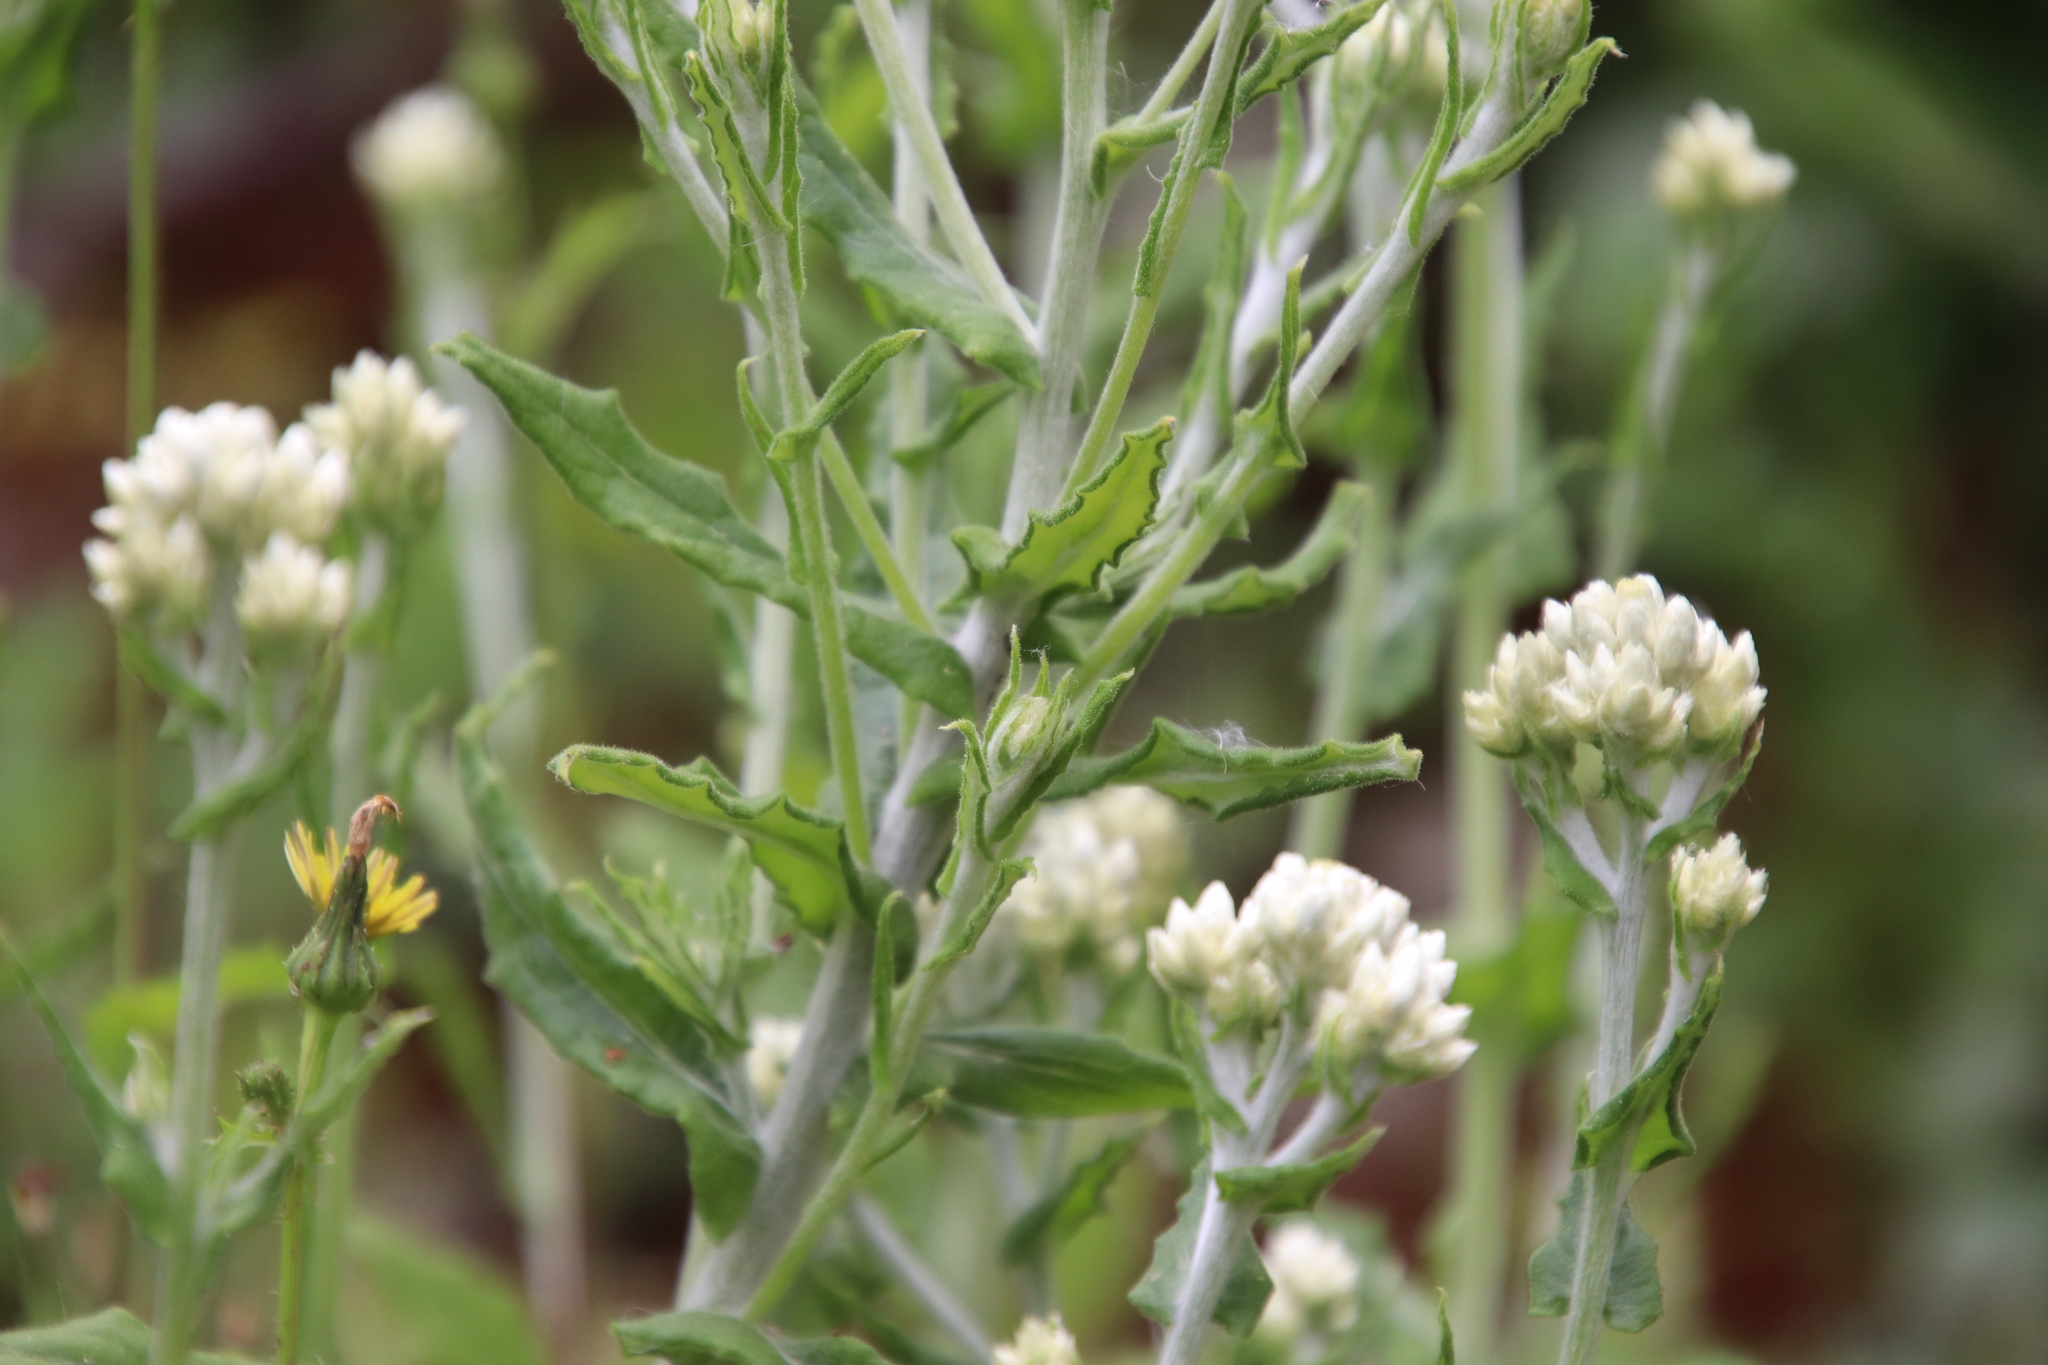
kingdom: Plantae
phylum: Tracheophyta
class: Magnoliopsida
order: Asterales
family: Asteraceae
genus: Pseudognaphalium
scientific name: Pseudognaphalium biolettii
